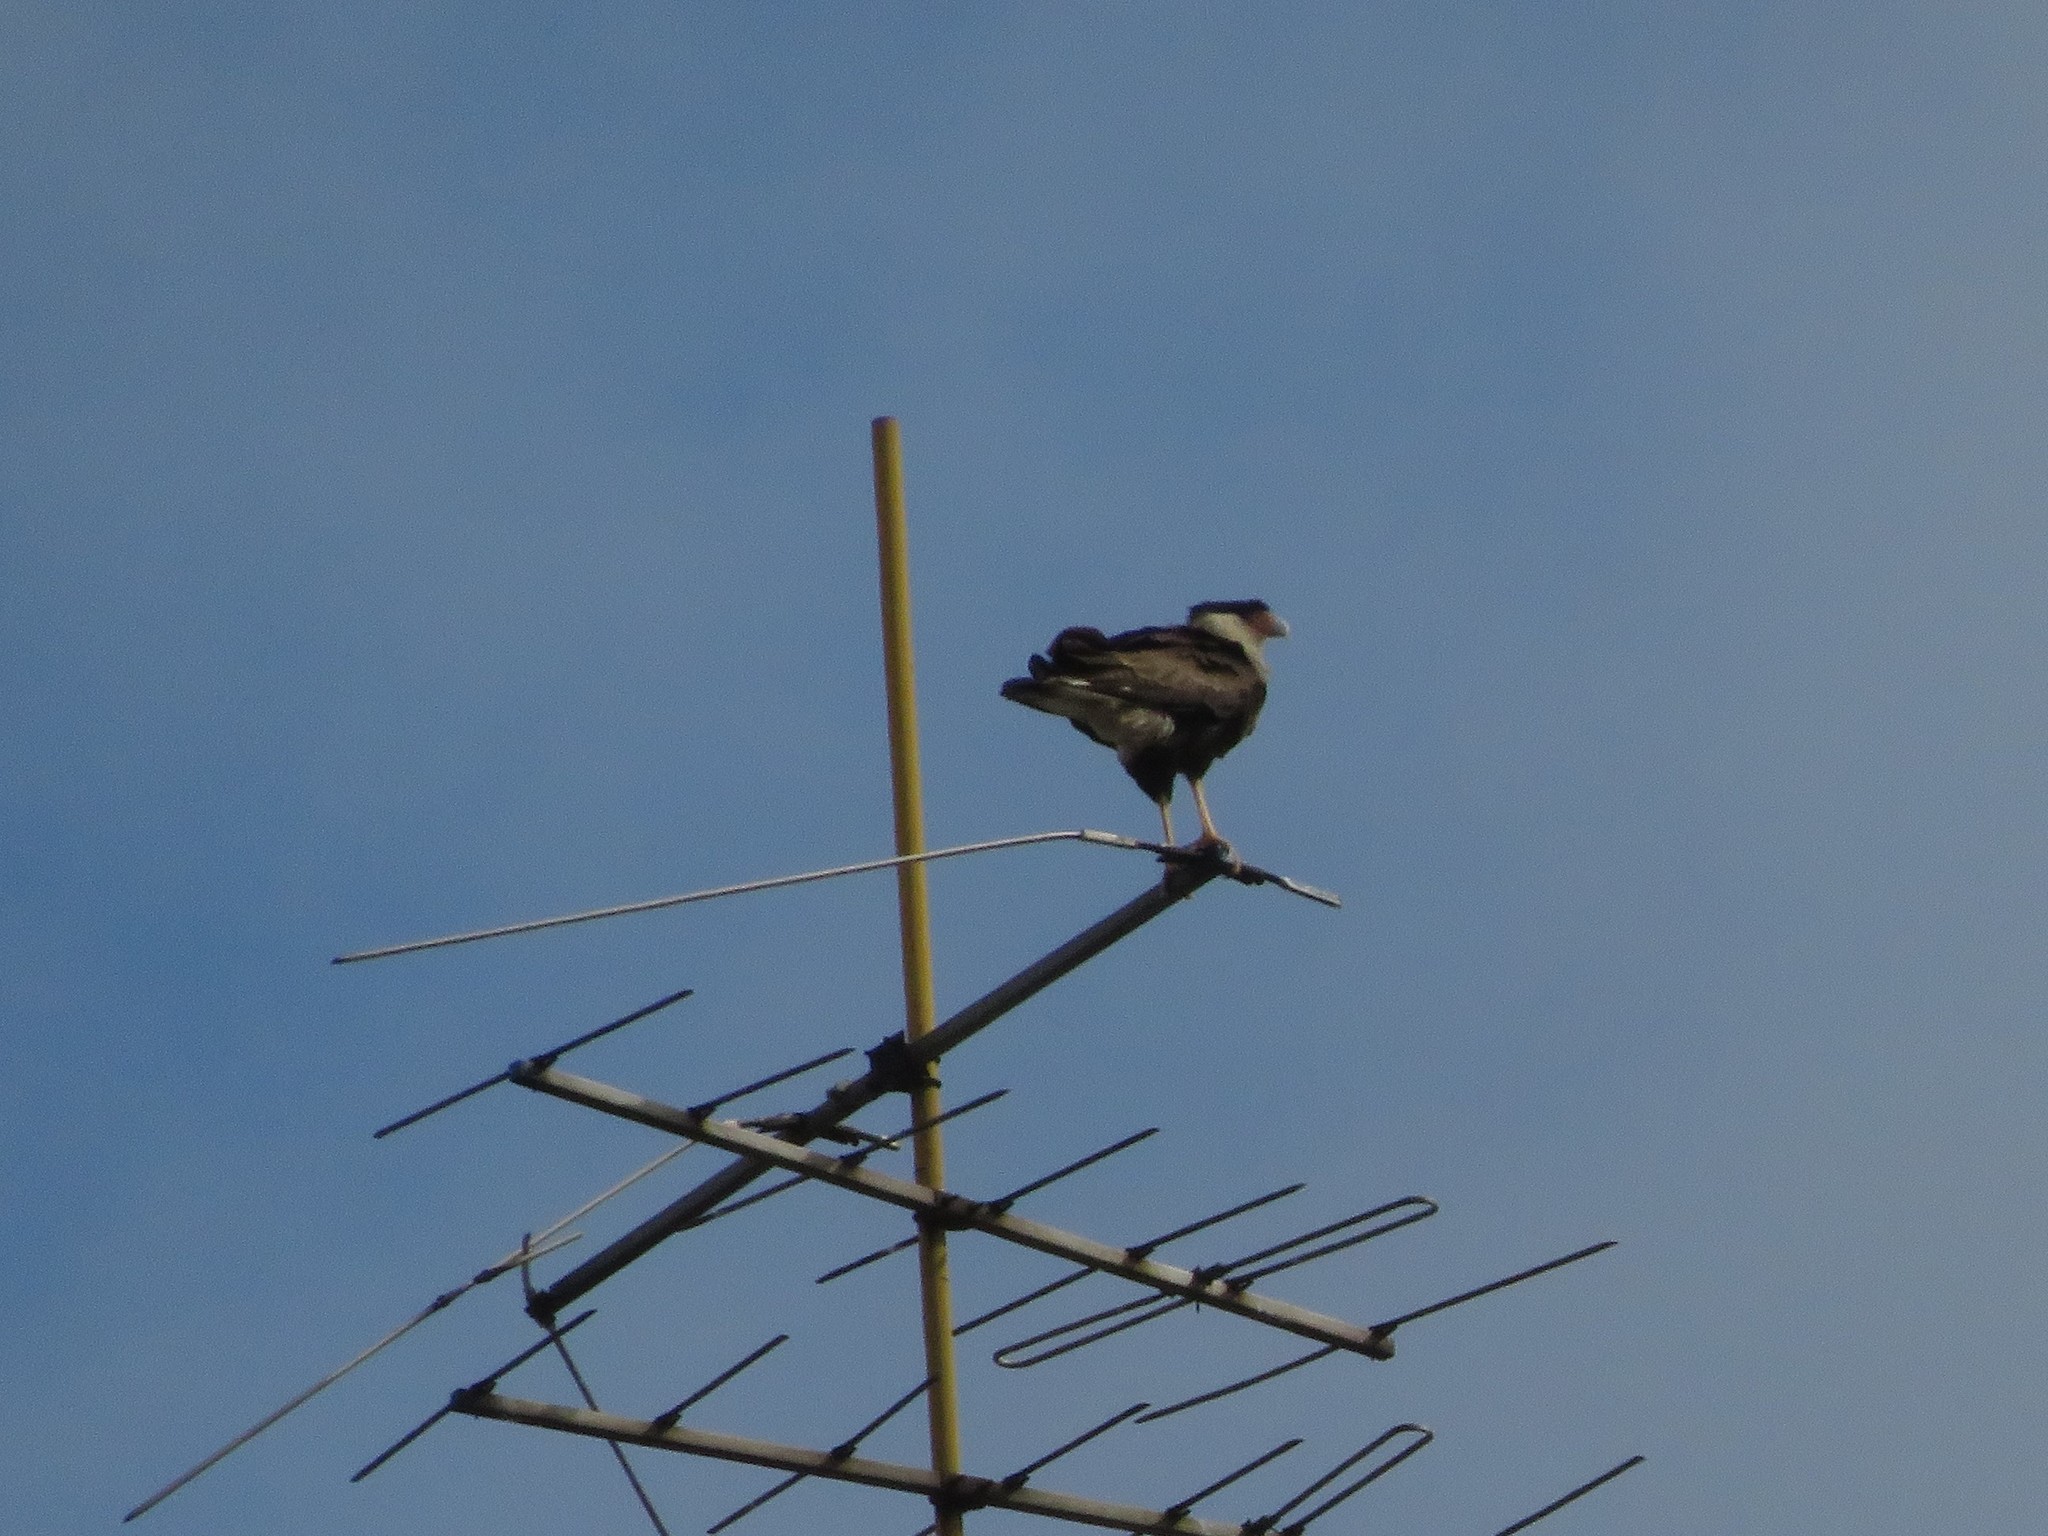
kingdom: Animalia
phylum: Chordata
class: Aves
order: Falconiformes
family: Falconidae
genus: Caracara
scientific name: Caracara plancus
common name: Southern caracara
